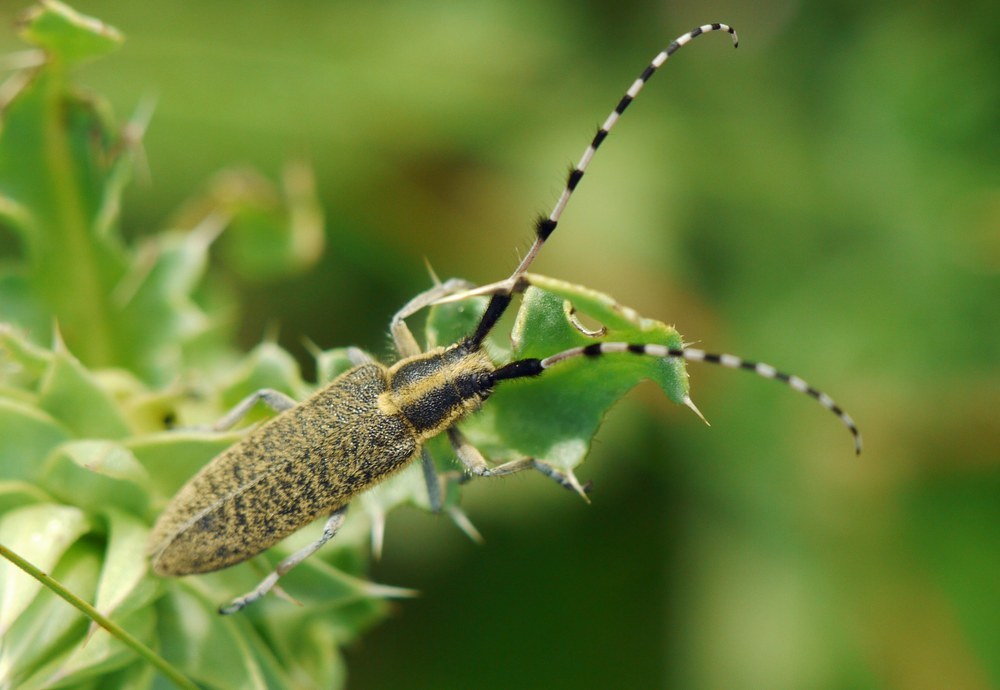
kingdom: Animalia
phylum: Arthropoda
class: Insecta
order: Coleoptera
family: Cerambycidae
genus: Agapanthia
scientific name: Agapanthia dahlii
